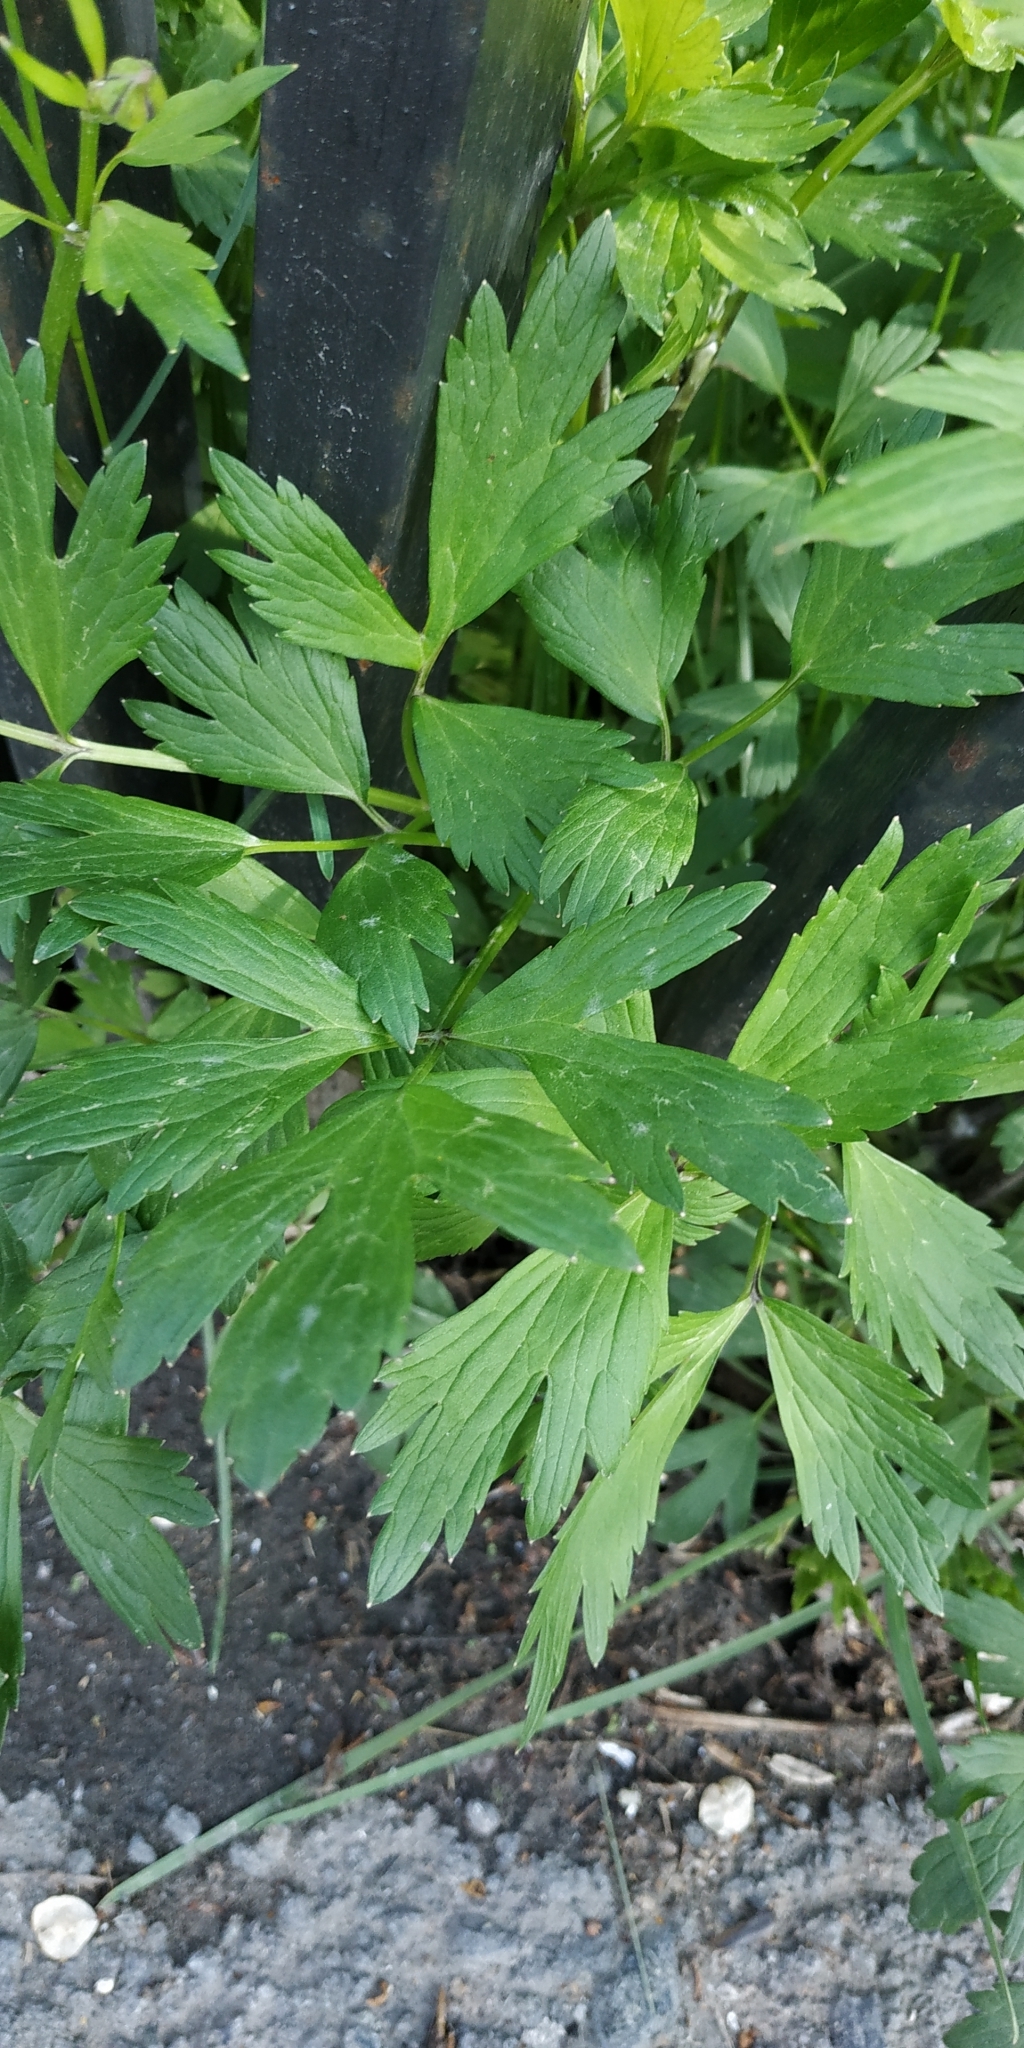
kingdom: Plantae
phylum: Tracheophyta
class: Magnoliopsida
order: Ranunculales
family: Ranunculaceae
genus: Ranunculus
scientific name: Ranunculus repens
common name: Creeping buttercup
